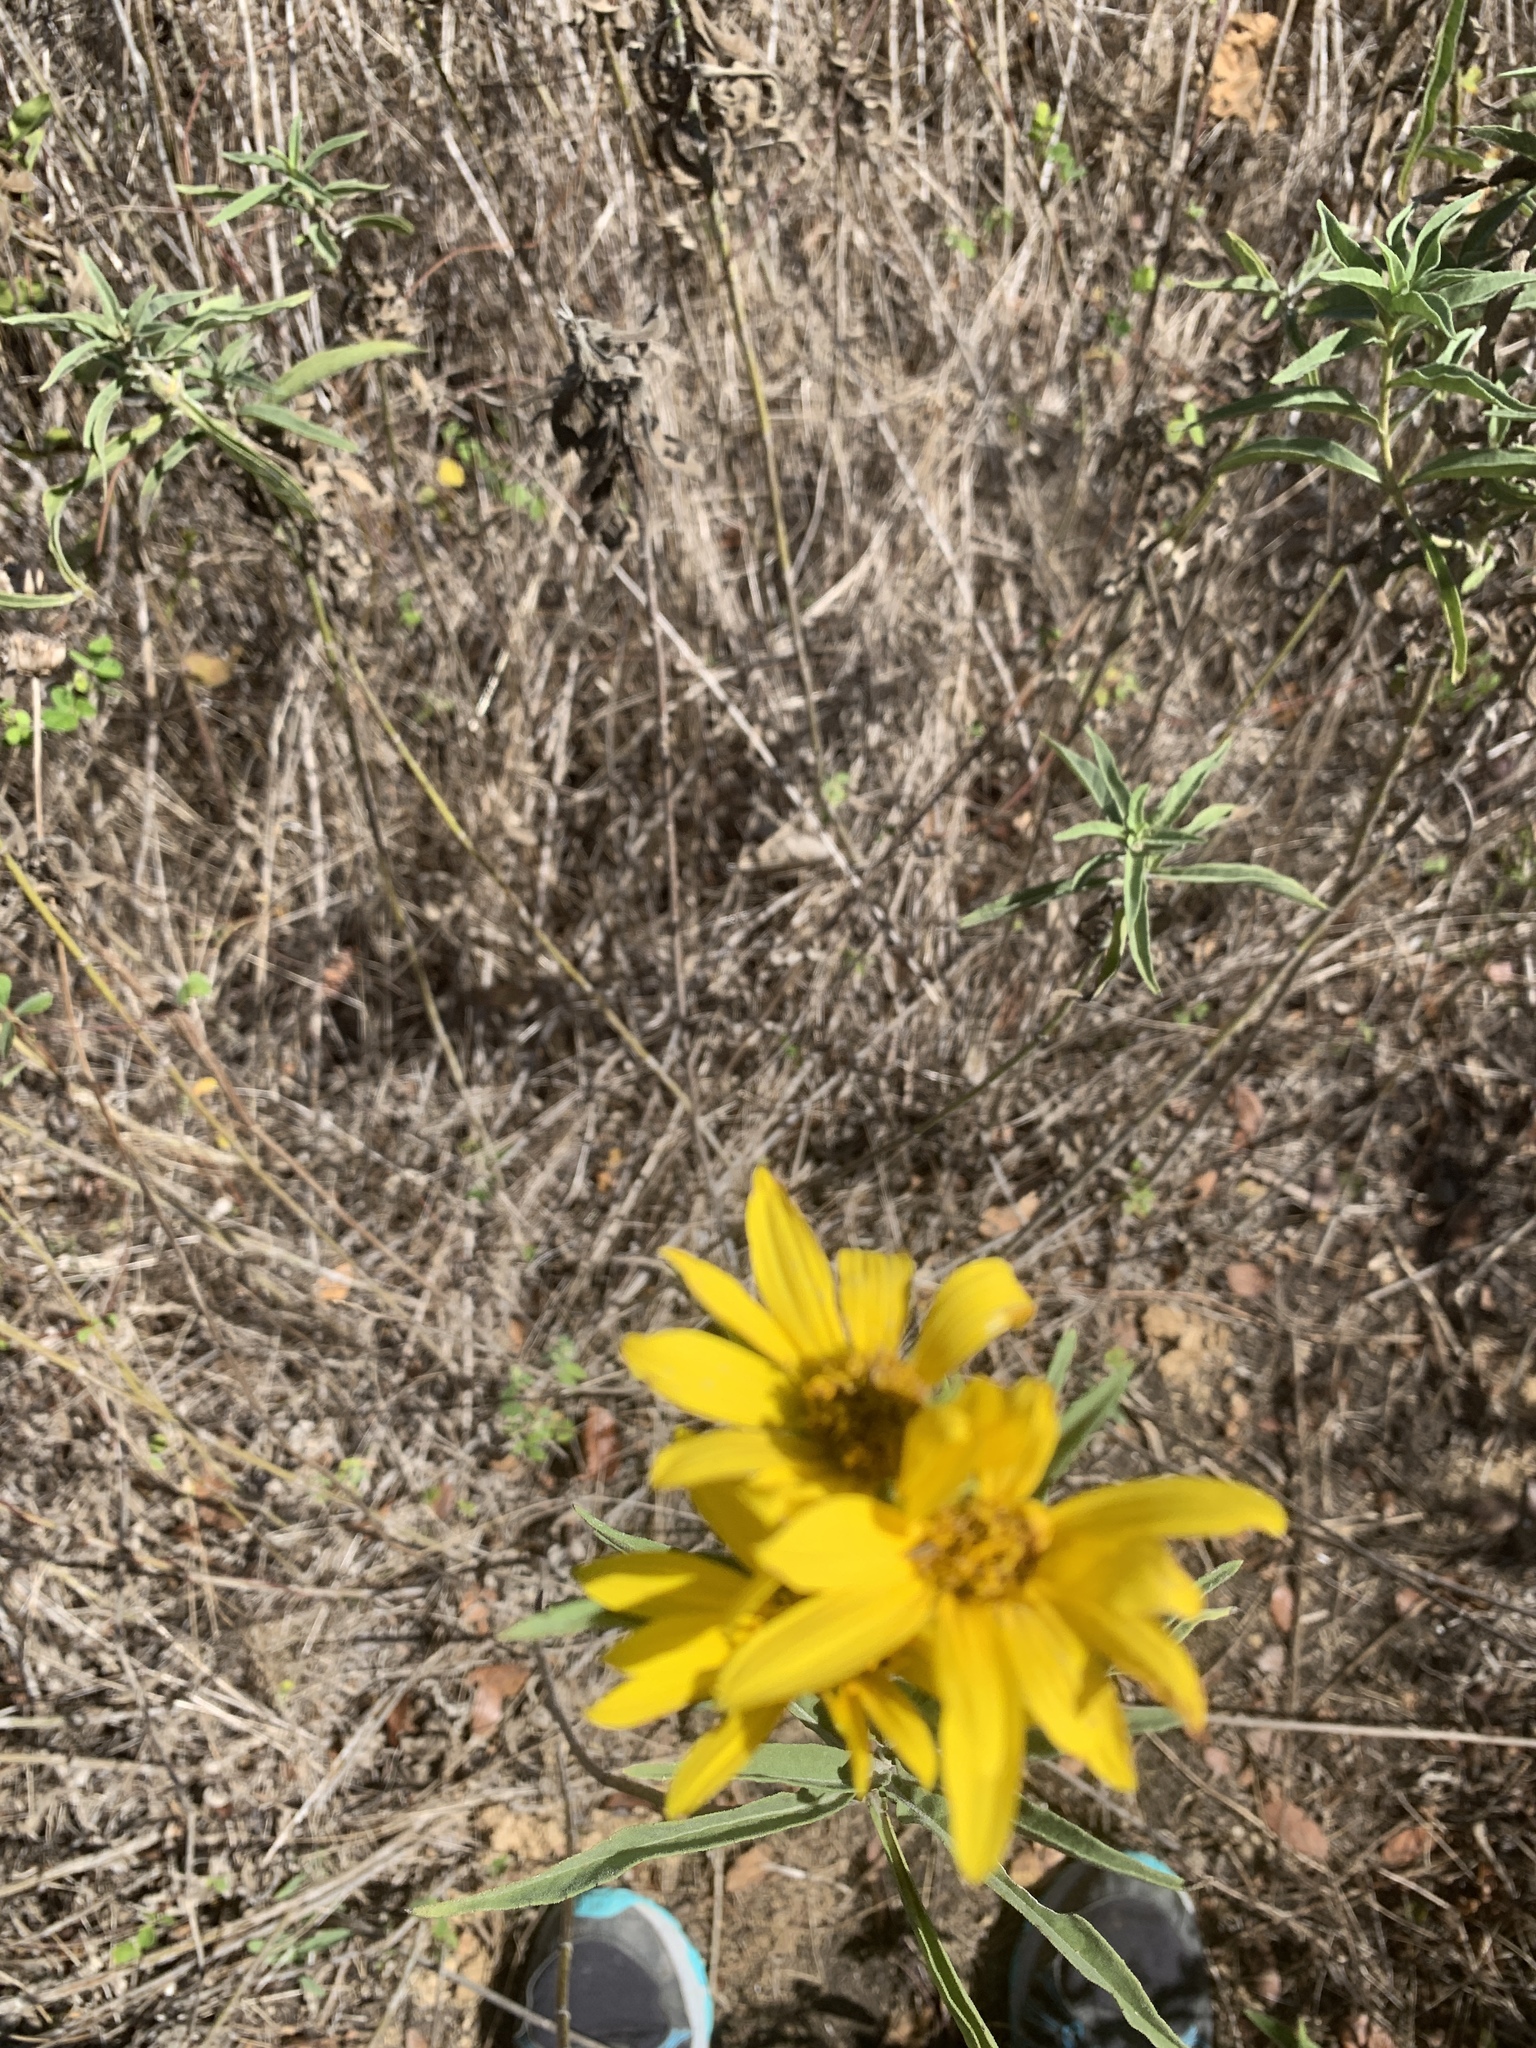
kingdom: Plantae
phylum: Tracheophyta
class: Magnoliopsida
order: Asterales
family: Asteraceae
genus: Helianthus
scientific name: Helianthus maximiliani
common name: Maximilian's sunflower
